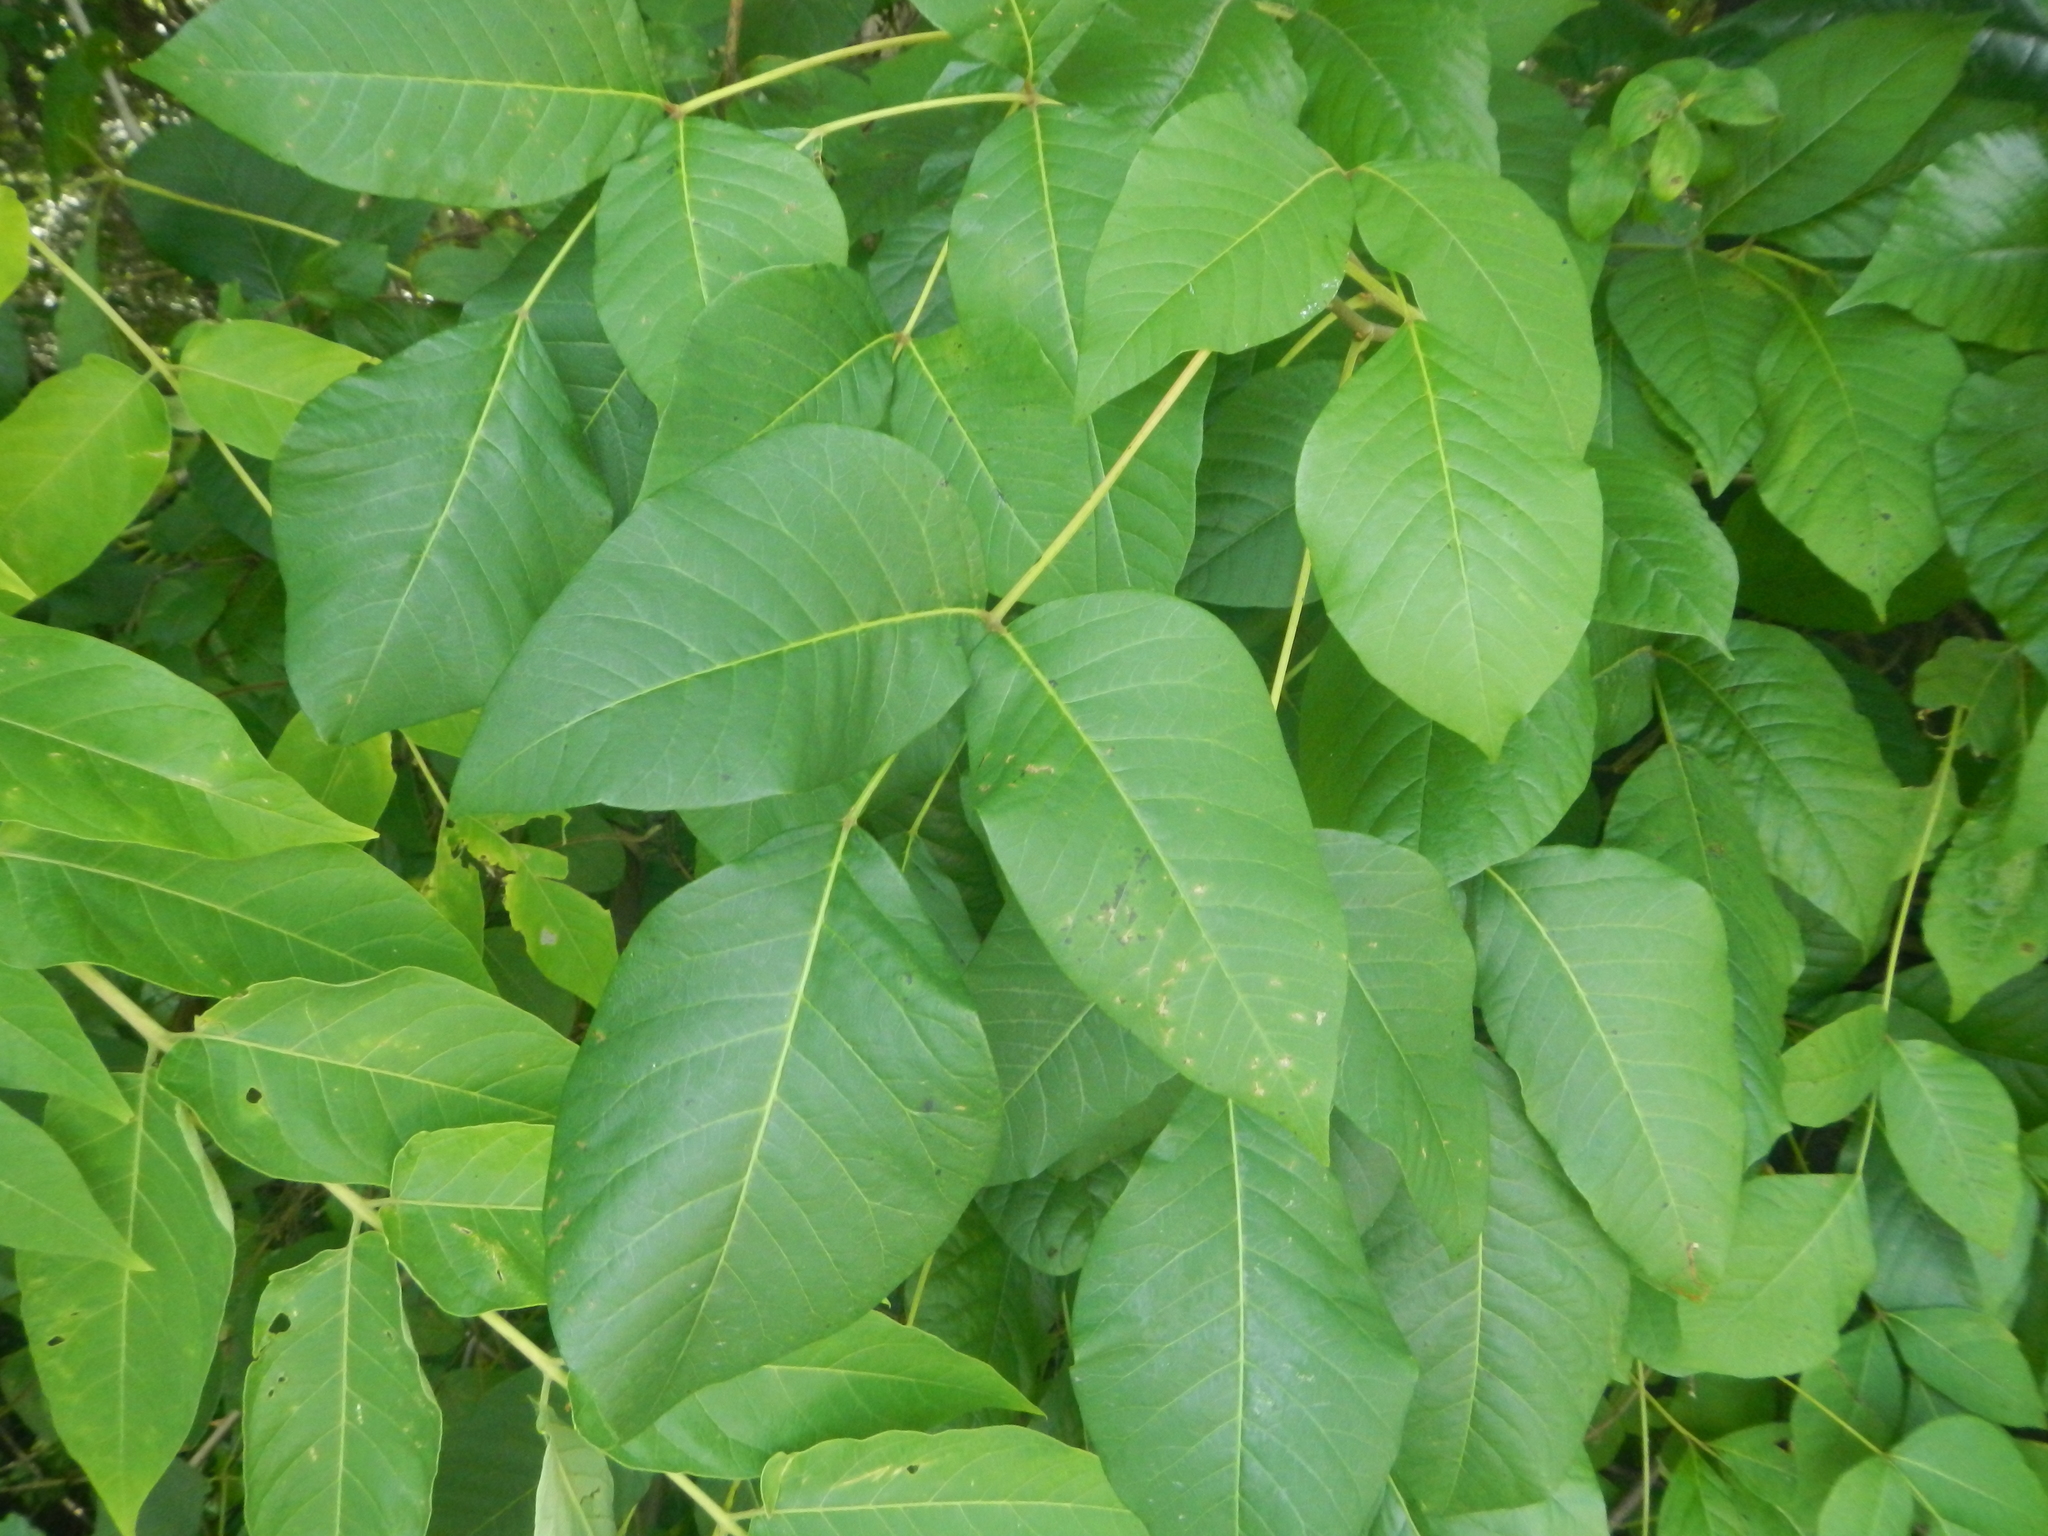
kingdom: Plantae
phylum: Tracheophyta
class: Magnoliopsida
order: Sapindales
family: Anacardiaceae
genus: Toxicodendron
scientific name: Toxicodendron radicans
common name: Poison ivy
